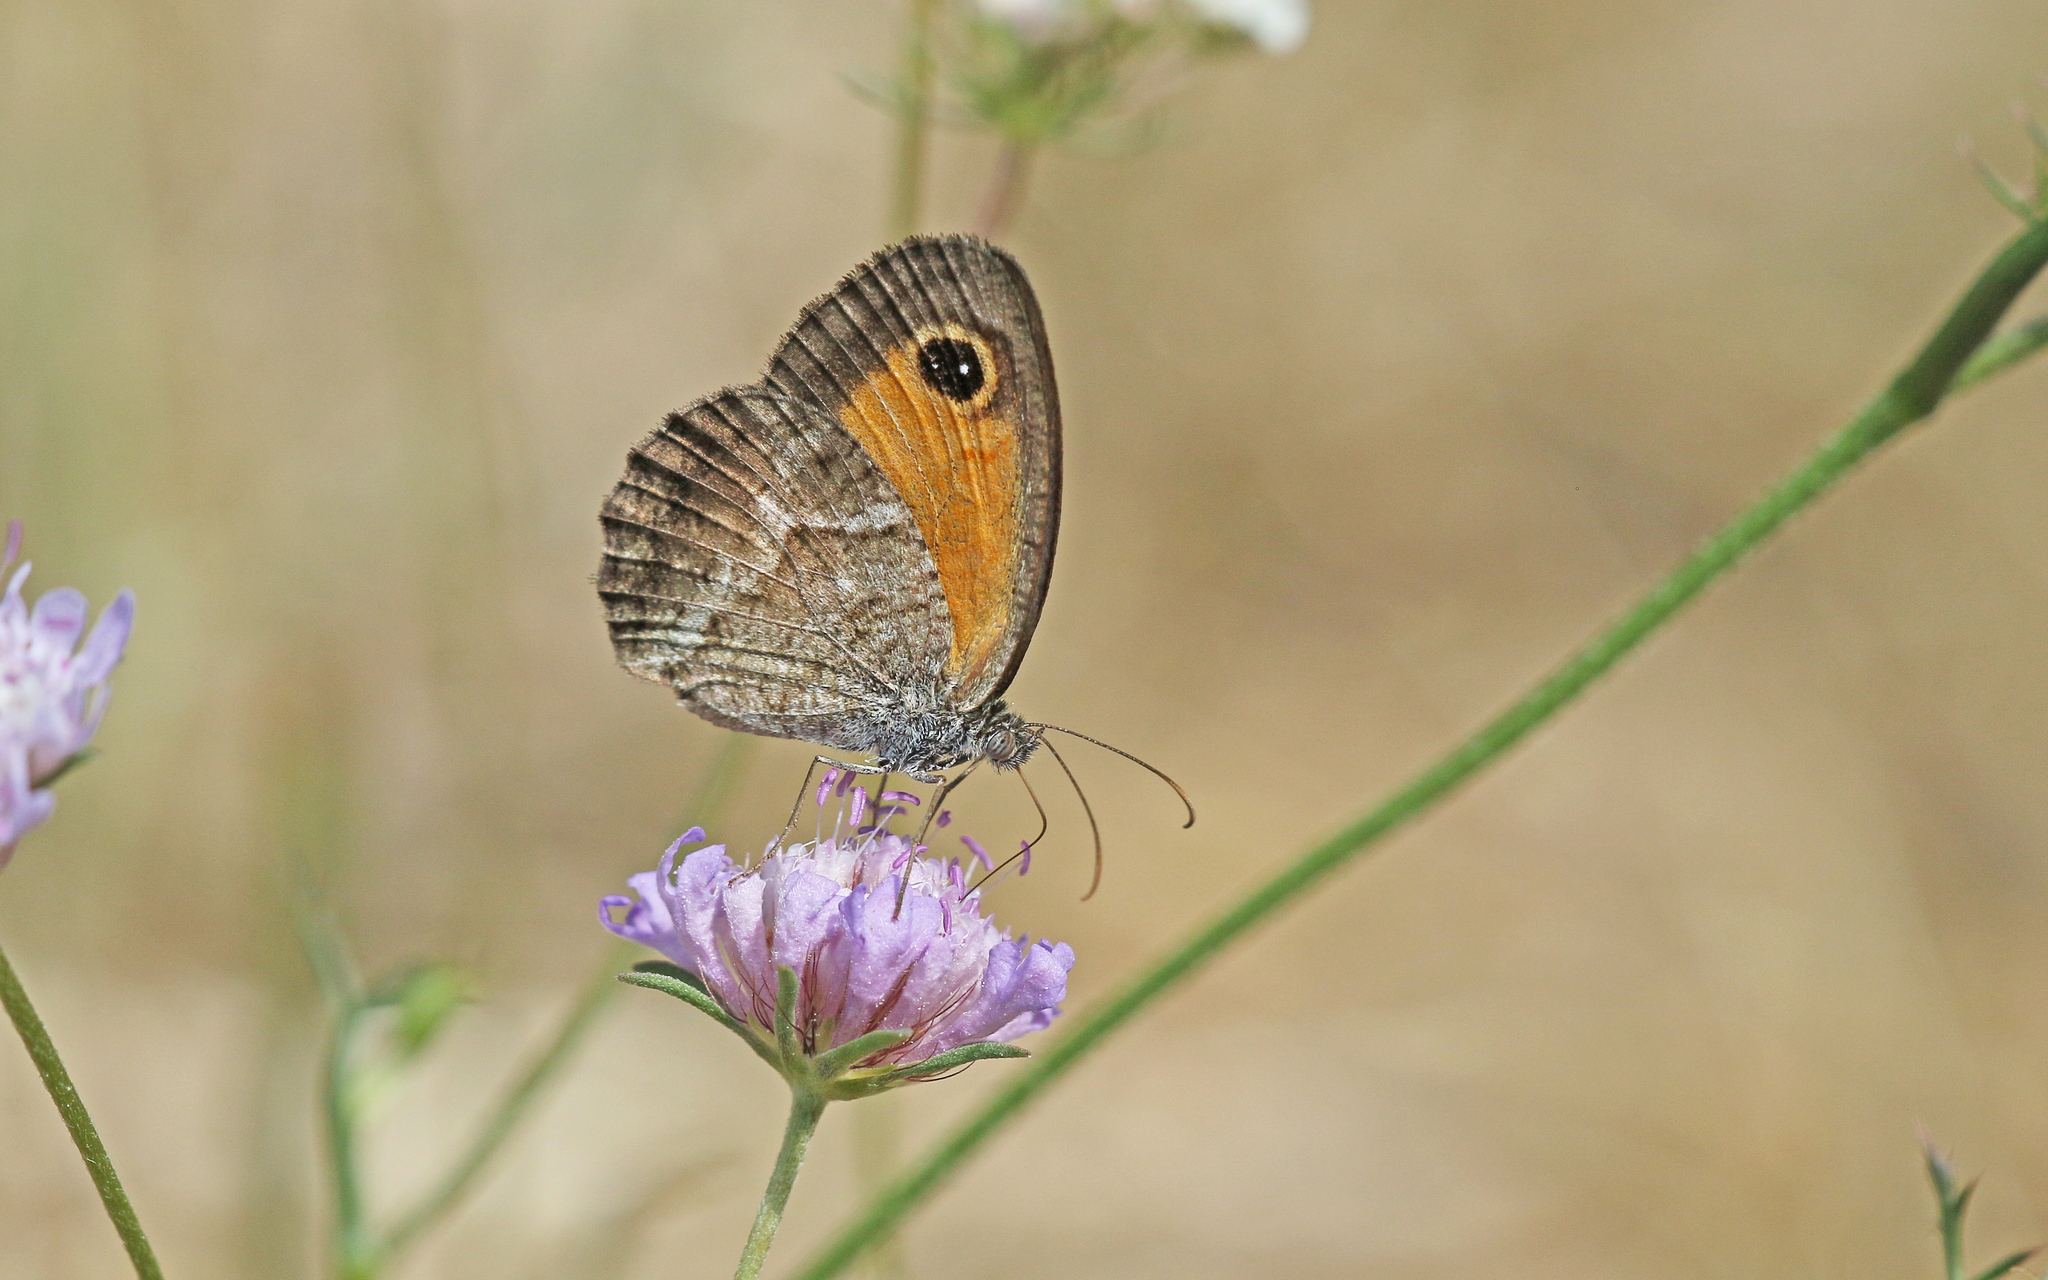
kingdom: Animalia
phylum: Arthropoda
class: Insecta
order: Lepidoptera
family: Nymphalidae
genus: Pyronia
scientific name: Pyronia cecilia
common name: Southern gatekeeper
